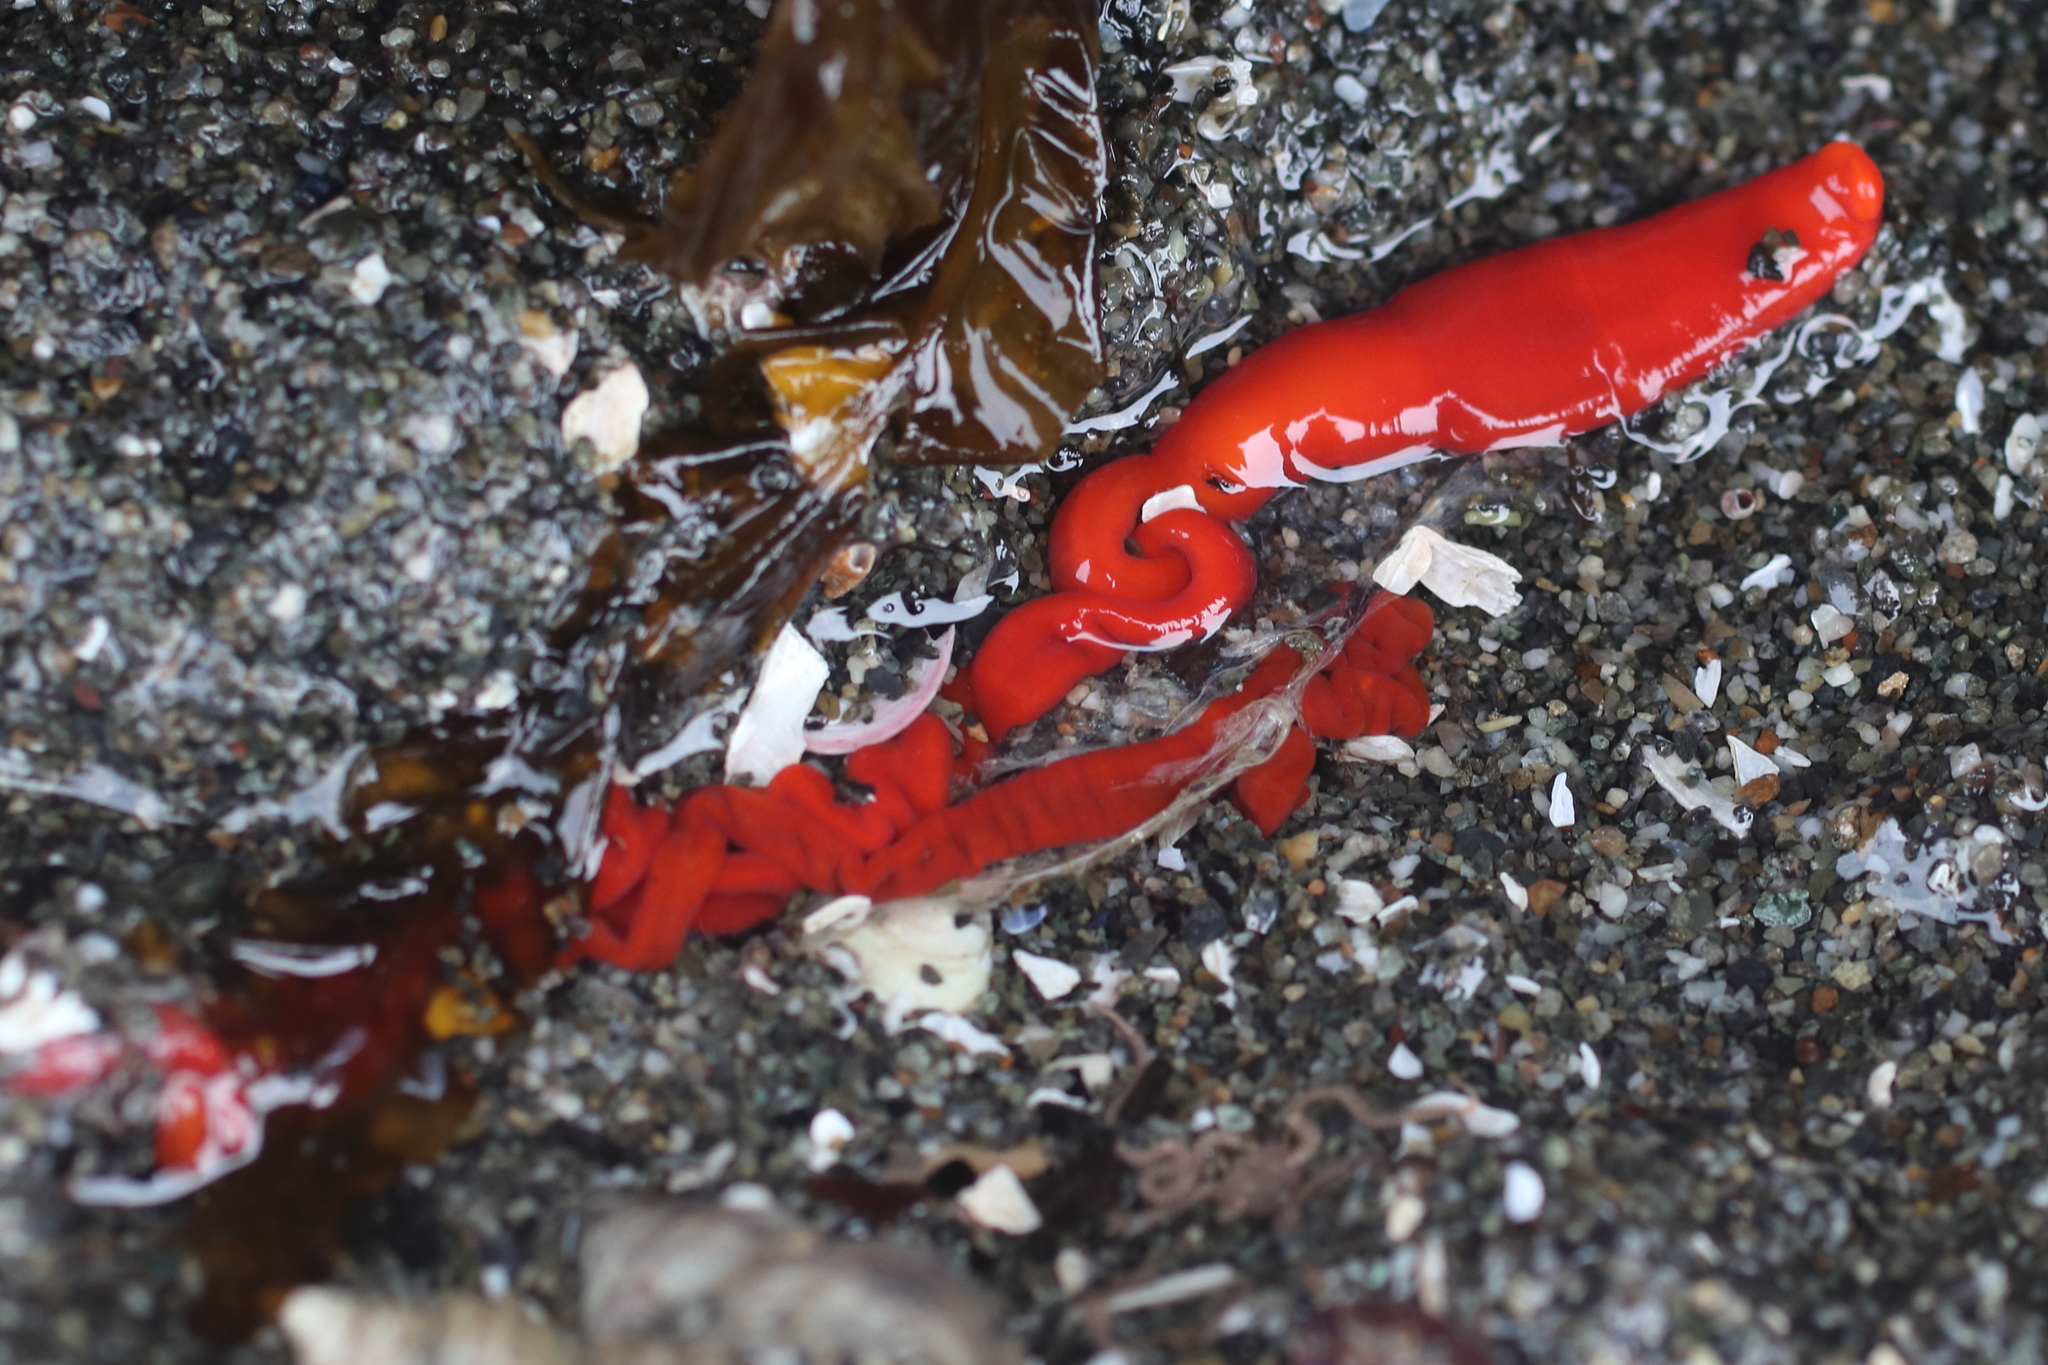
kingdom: Animalia
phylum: Nemertea
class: Palaeonemertea
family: Tubulanidae
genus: Tubulanus
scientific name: Tubulanus polymorphus
